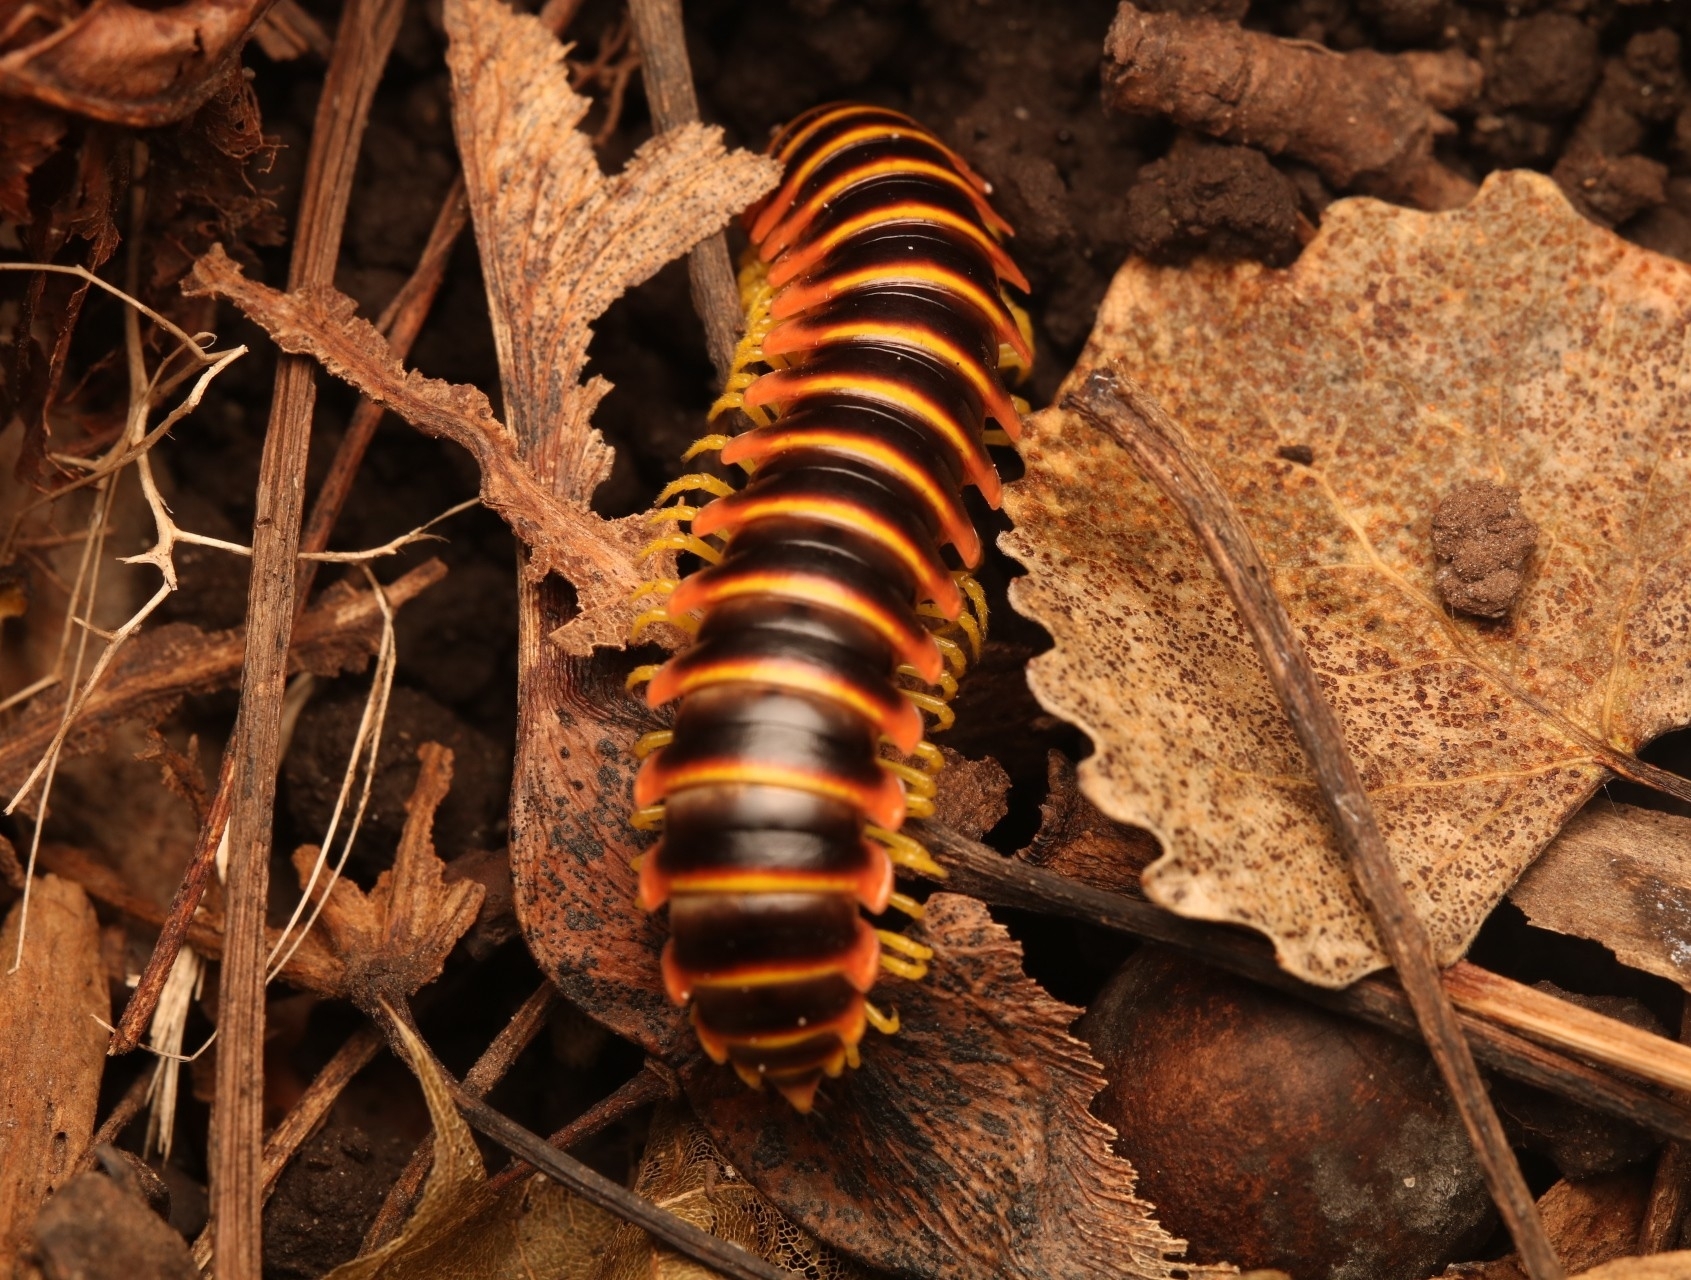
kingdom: Animalia
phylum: Arthropoda
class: Diplopoda
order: Polydesmida
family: Xystodesmidae
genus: Apheloria
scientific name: Apheloria virginiensis
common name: Black-and-gold flat millipede
